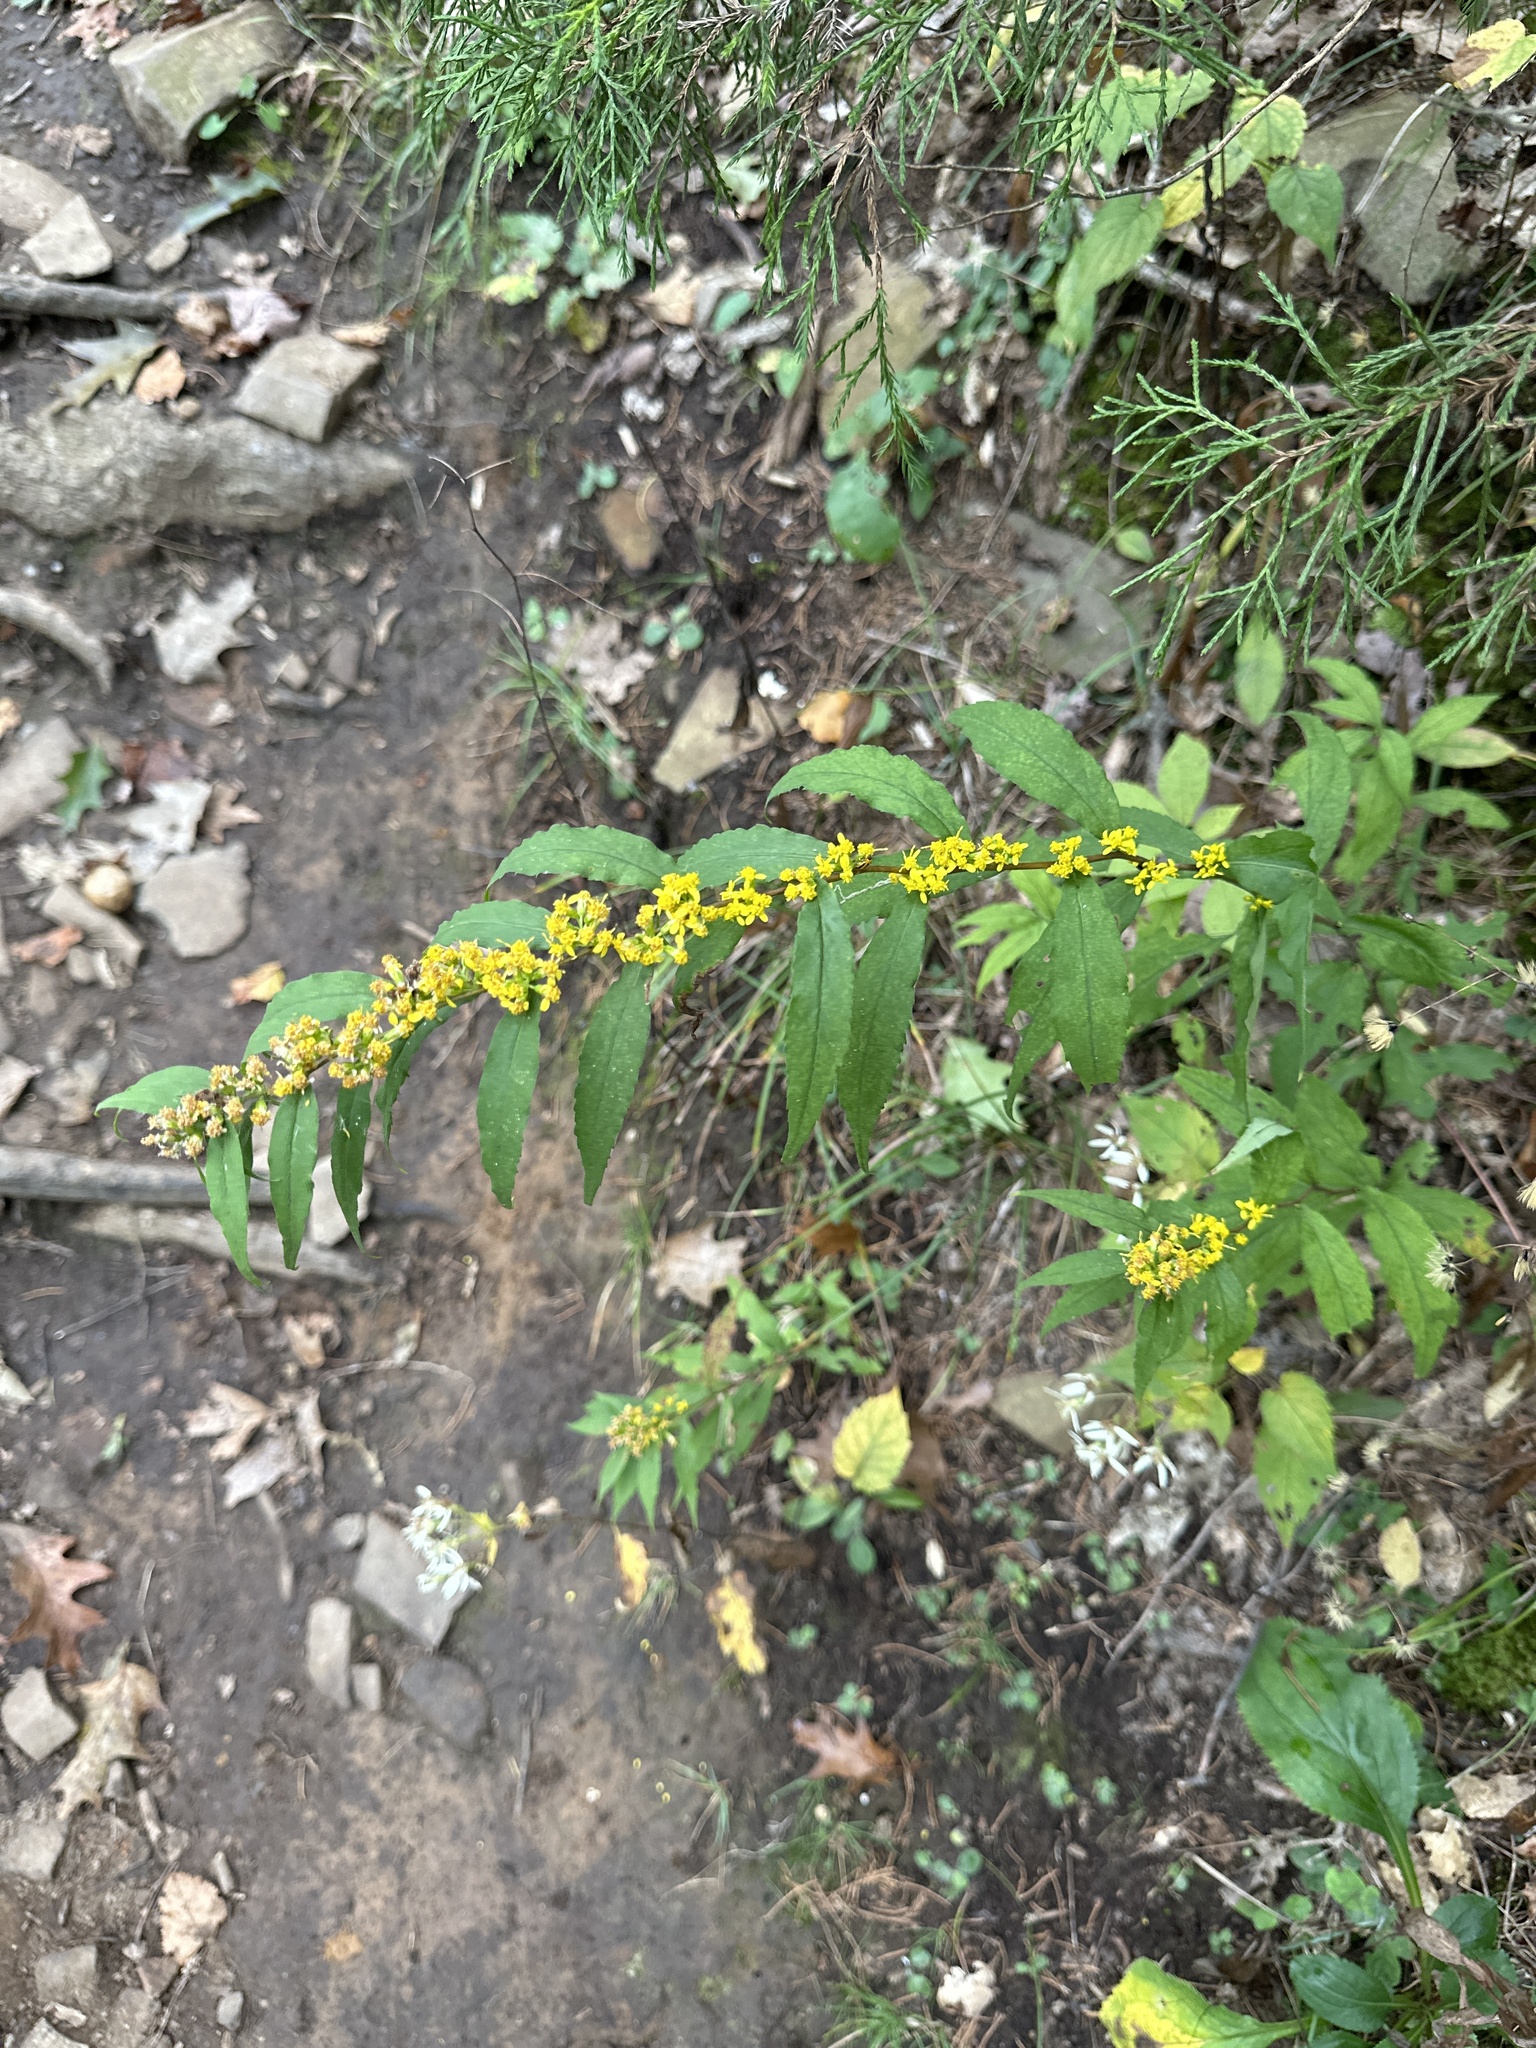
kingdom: Plantae
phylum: Tracheophyta
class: Magnoliopsida
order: Asterales
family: Asteraceae
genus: Solidago
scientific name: Solidago caesia
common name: Woodland goldenrod
